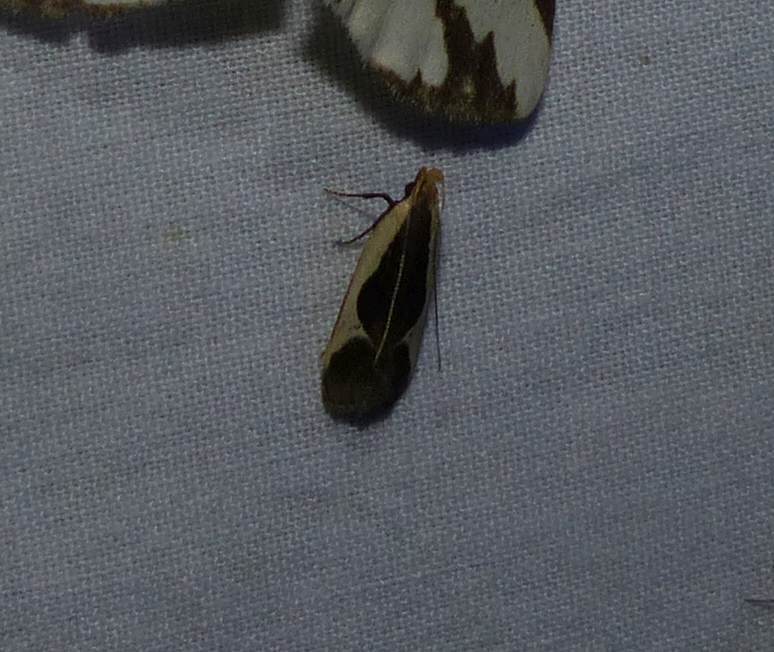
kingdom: Animalia
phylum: Arthropoda
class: Insecta
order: Lepidoptera
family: Gelechiidae
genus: Dichomeris
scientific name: Dichomeris flavocostella
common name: Cream-edged dichomeris moth
